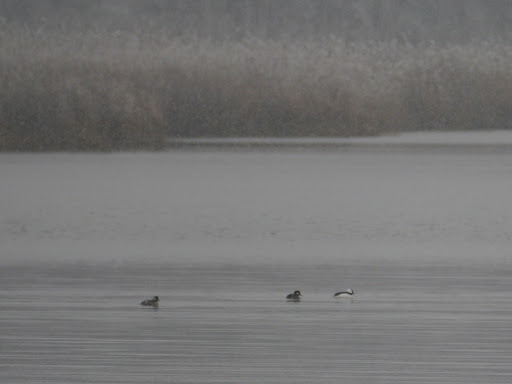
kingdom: Animalia
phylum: Chordata
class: Aves
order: Anseriformes
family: Anatidae
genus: Bucephala
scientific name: Bucephala albeola
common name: Bufflehead
